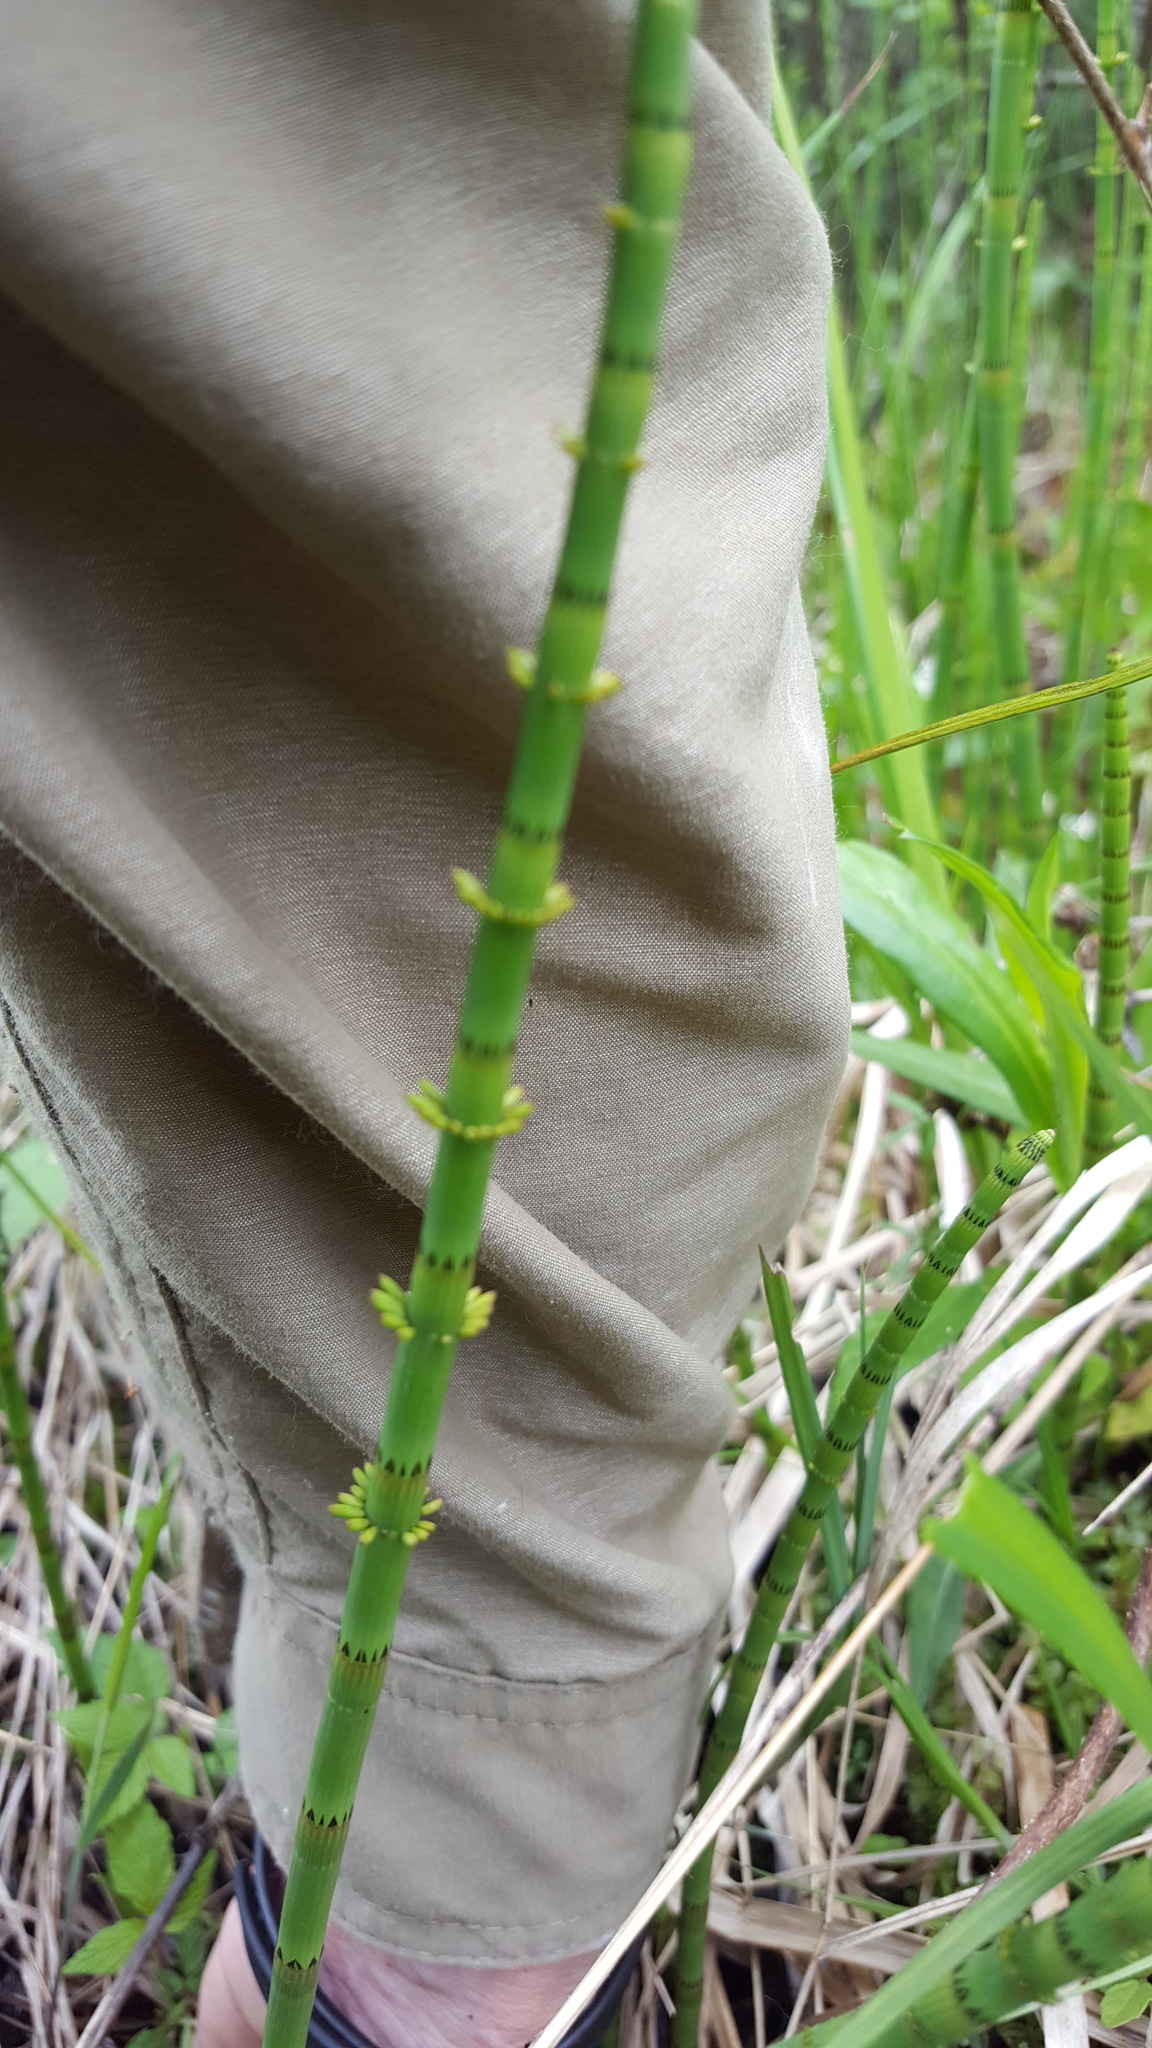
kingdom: Plantae
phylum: Tracheophyta
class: Polypodiopsida
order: Equisetales
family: Equisetaceae
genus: Equisetum
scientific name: Equisetum fluviatile
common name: Water horsetail
